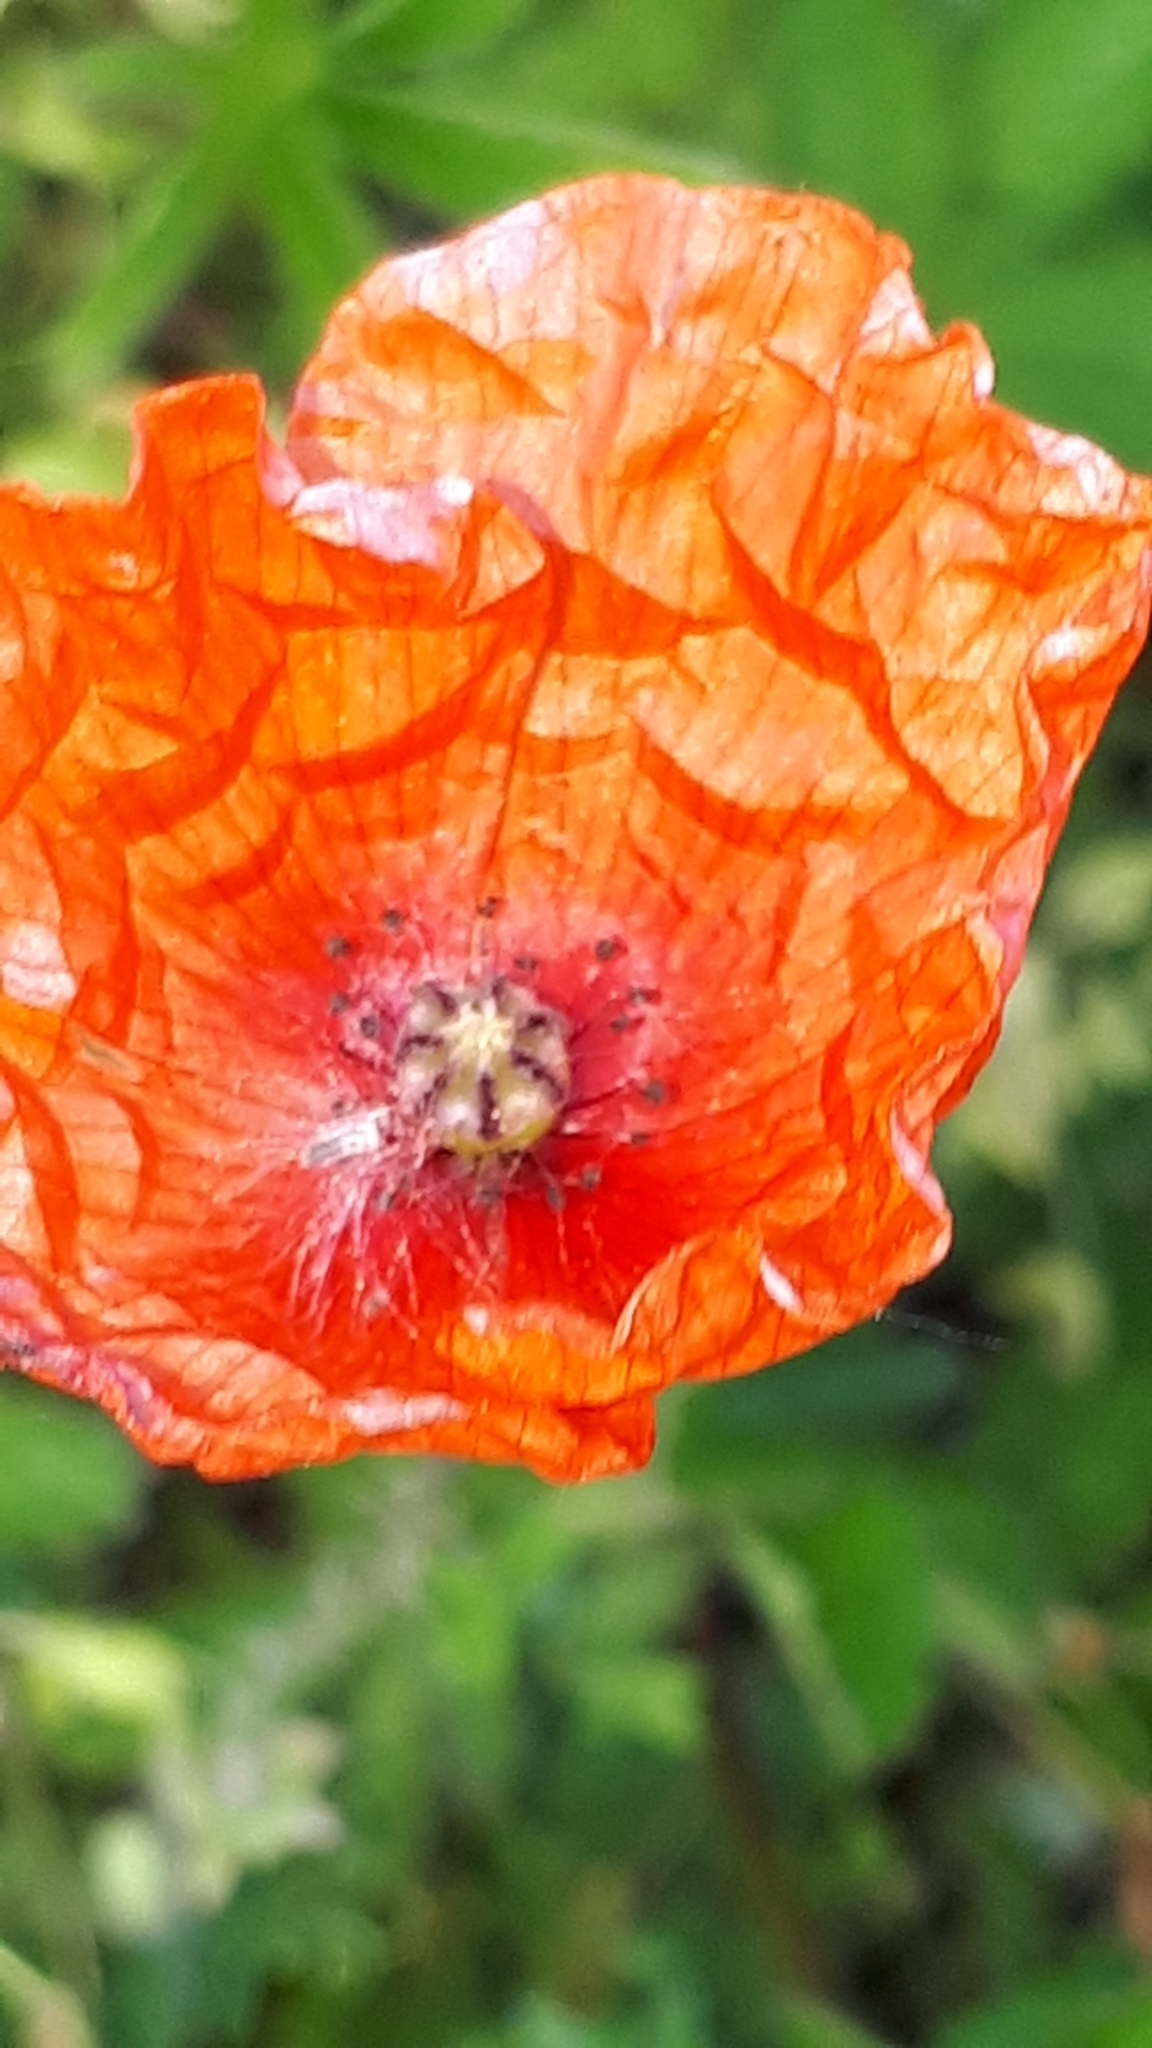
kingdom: Plantae
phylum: Tracheophyta
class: Magnoliopsida
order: Ranunculales
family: Papaveraceae
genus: Papaver
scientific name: Papaver rhoeas
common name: Corn poppy
